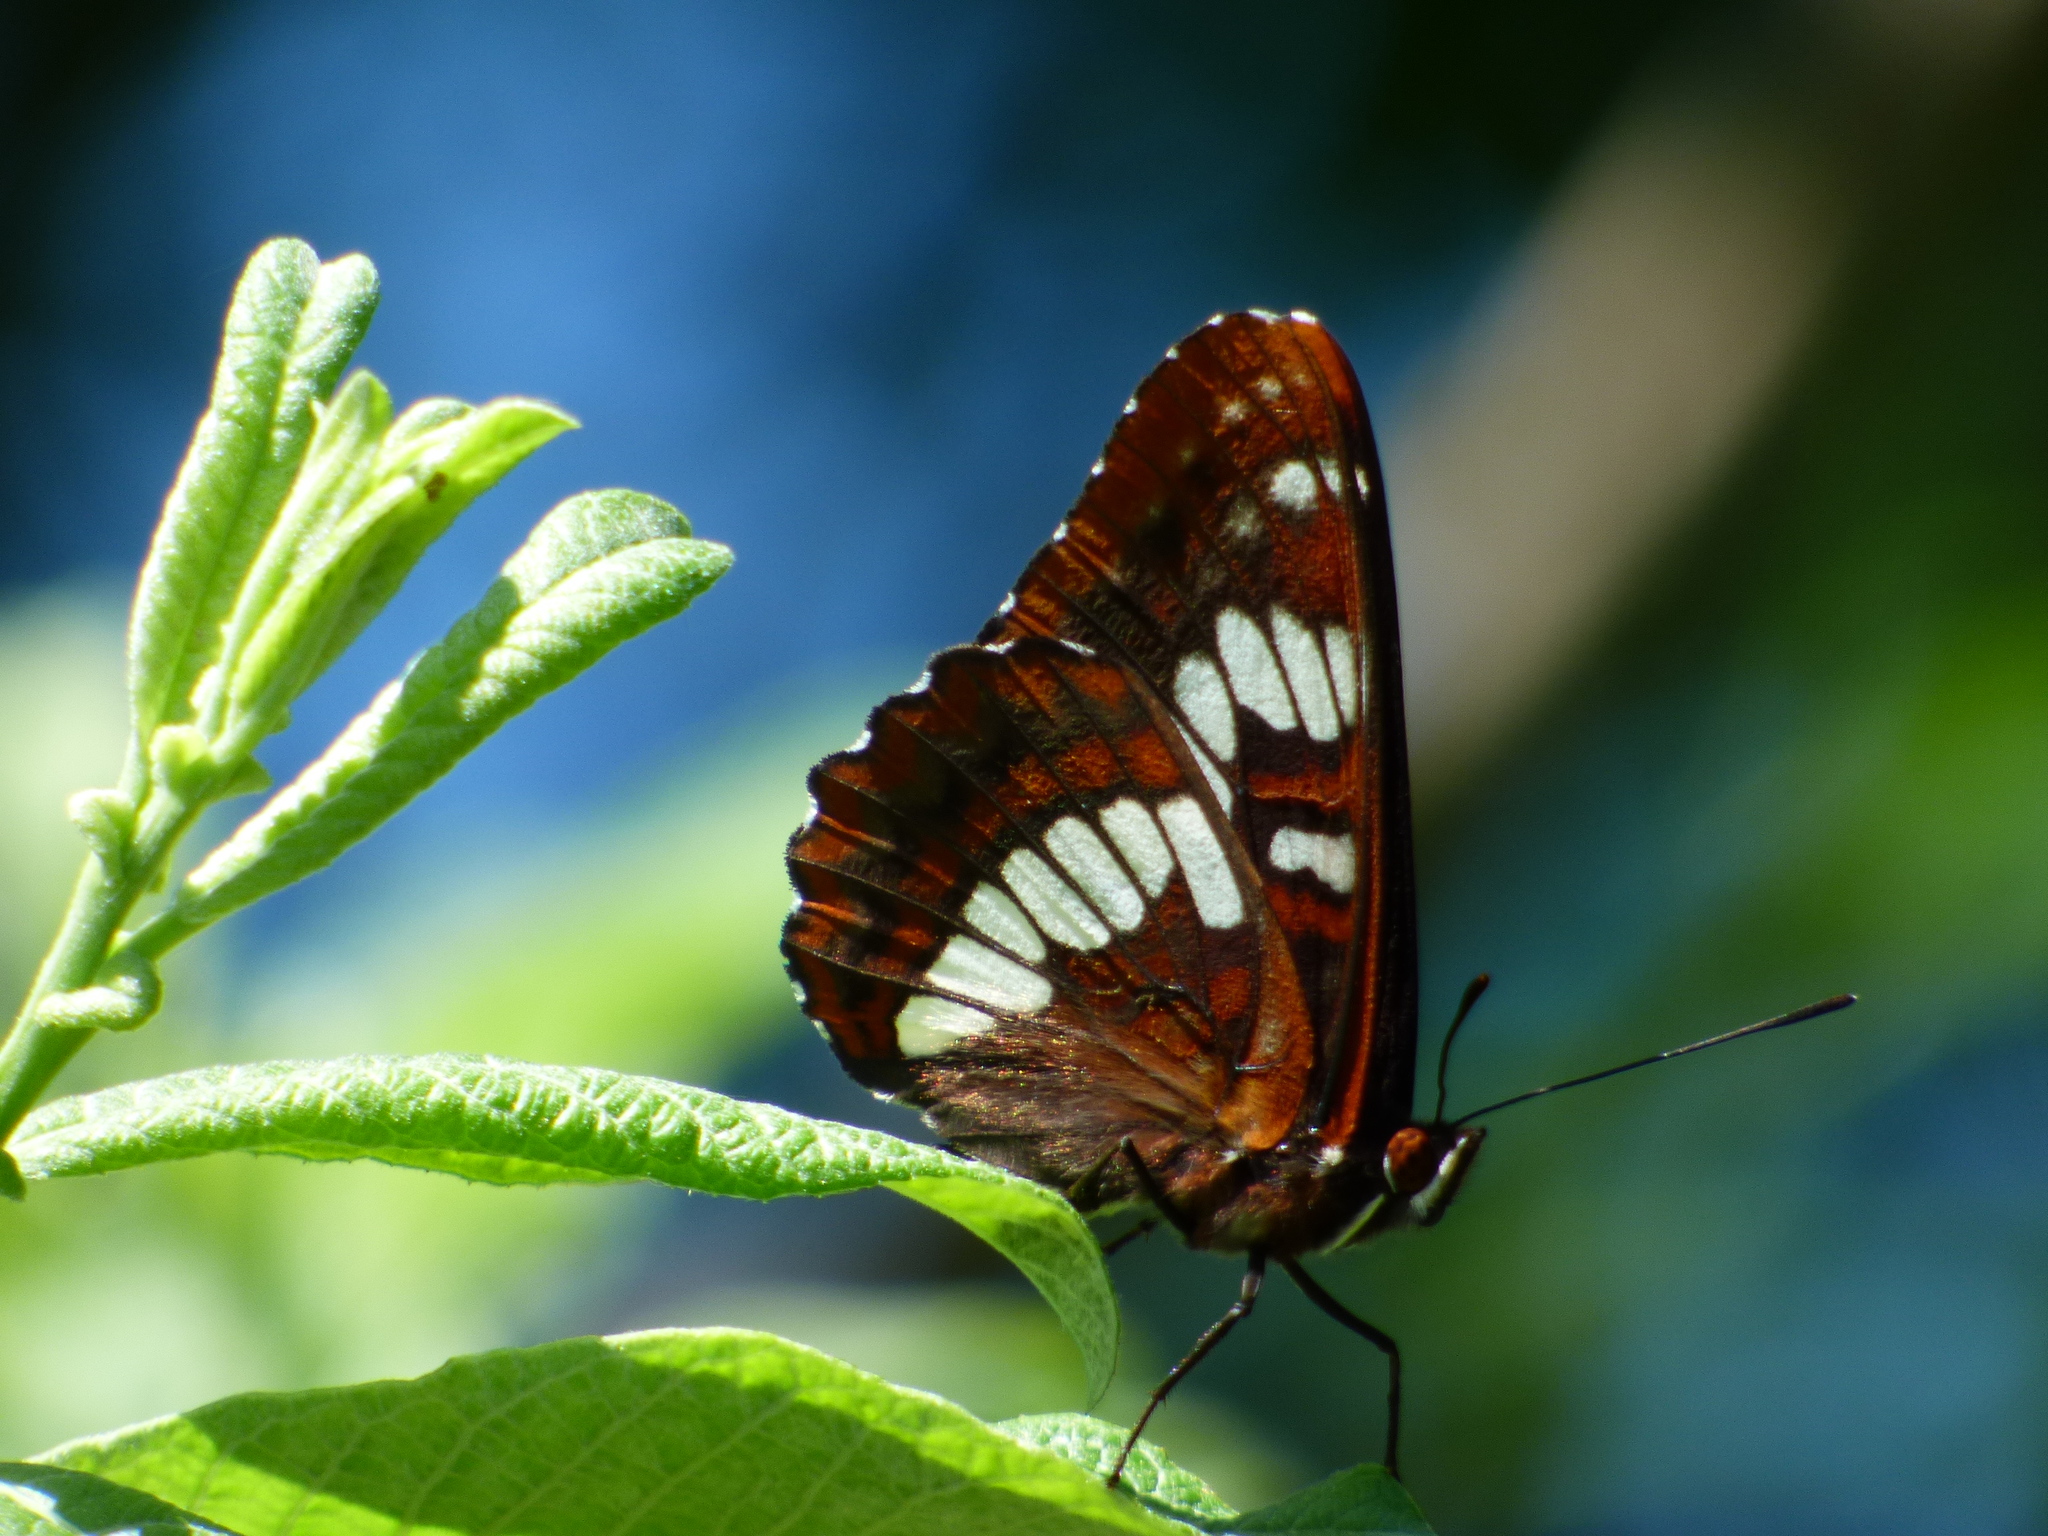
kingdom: Animalia
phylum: Arthropoda
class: Insecta
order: Lepidoptera
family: Nymphalidae
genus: Limenitis
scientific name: Limenitis lorquini
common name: Lorquin's admiral
